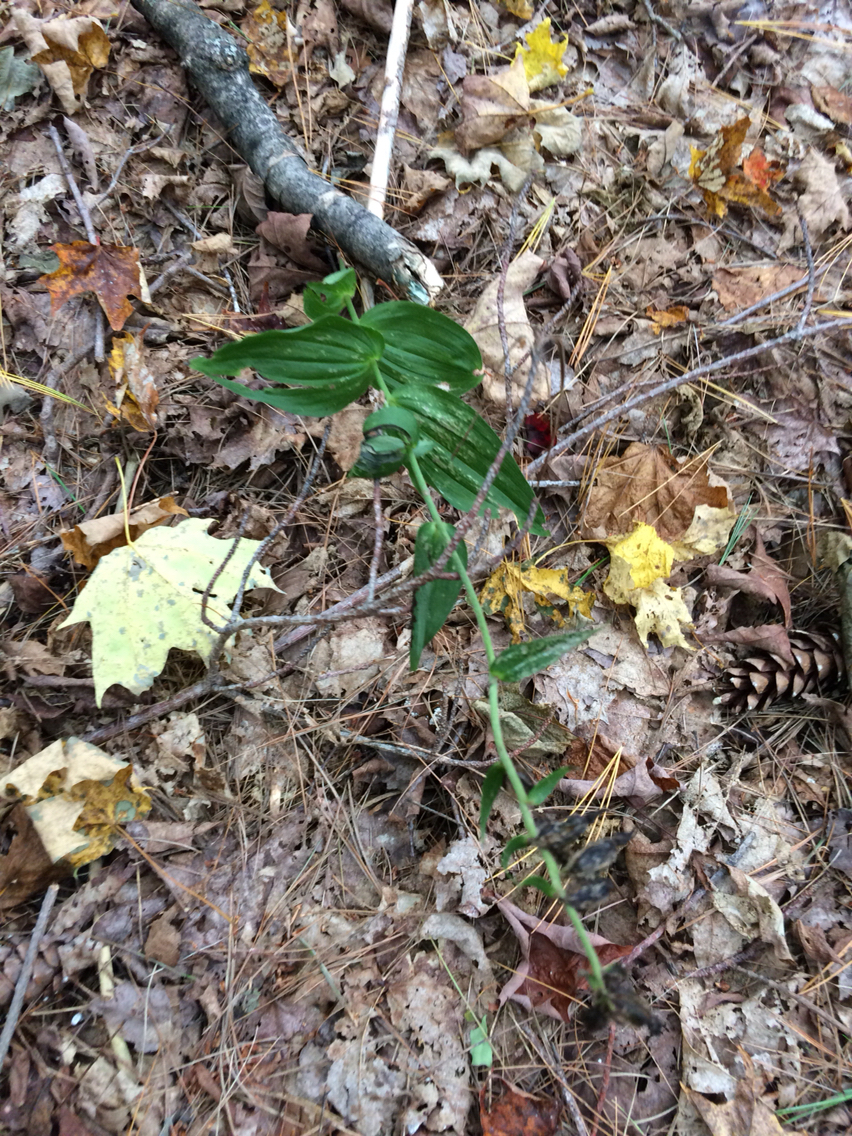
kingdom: Plantae
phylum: Tracheophyta
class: Liliopsida
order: Asparagales
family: Orchidaceae
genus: Epipactis
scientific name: Epipactis helleborine
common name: Broad-leaved helleborine
